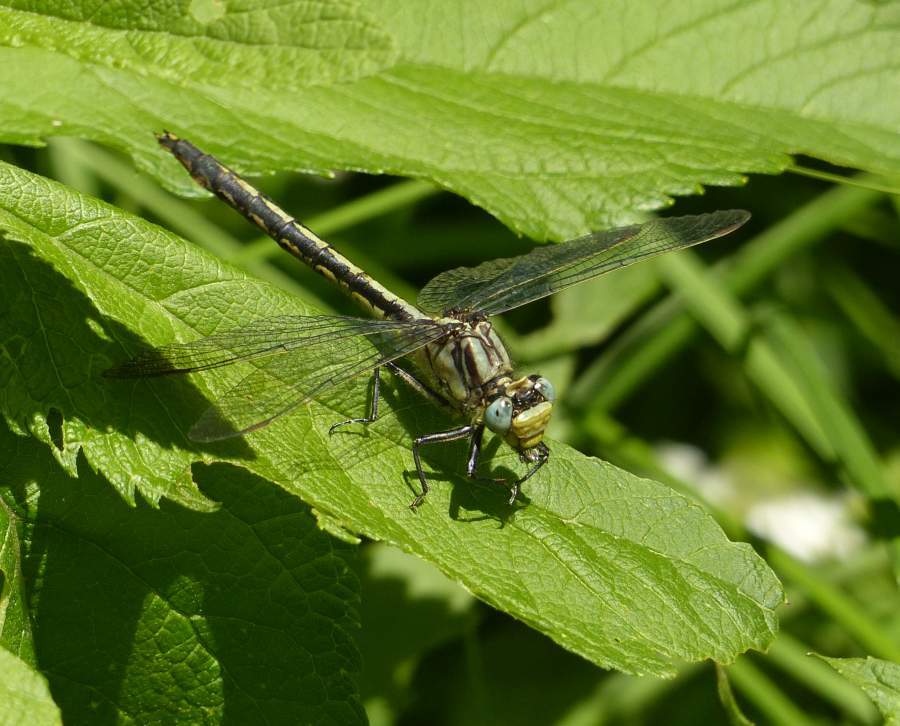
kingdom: Animalia
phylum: Arthropoda
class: Insecta
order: Odonata
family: Gomphidae
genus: Arigomphus
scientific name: Arigomphus cornutus
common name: Horned clubtail
